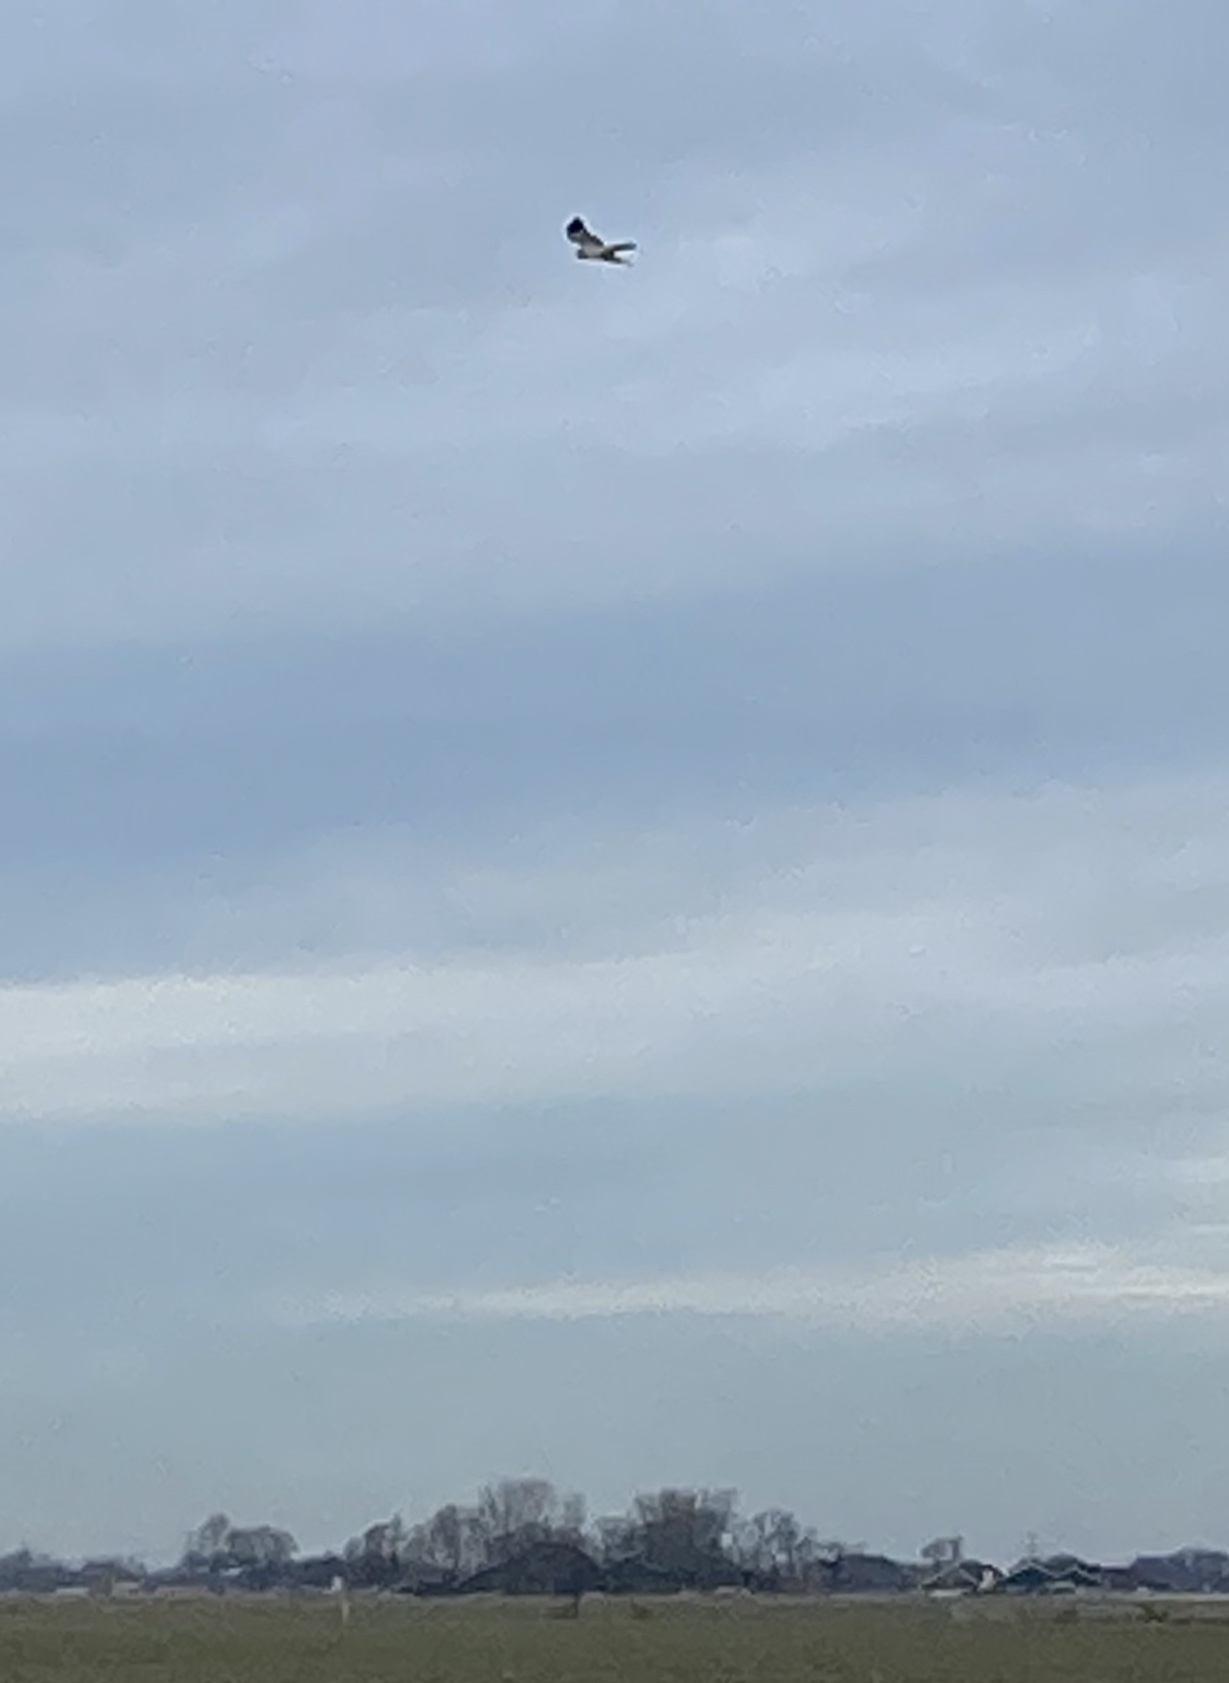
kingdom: Animalia
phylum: Chordata
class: Aves
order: Accipitriformes
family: Accipitridae
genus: Circus
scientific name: Circus cyaneus
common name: Hen harrier
